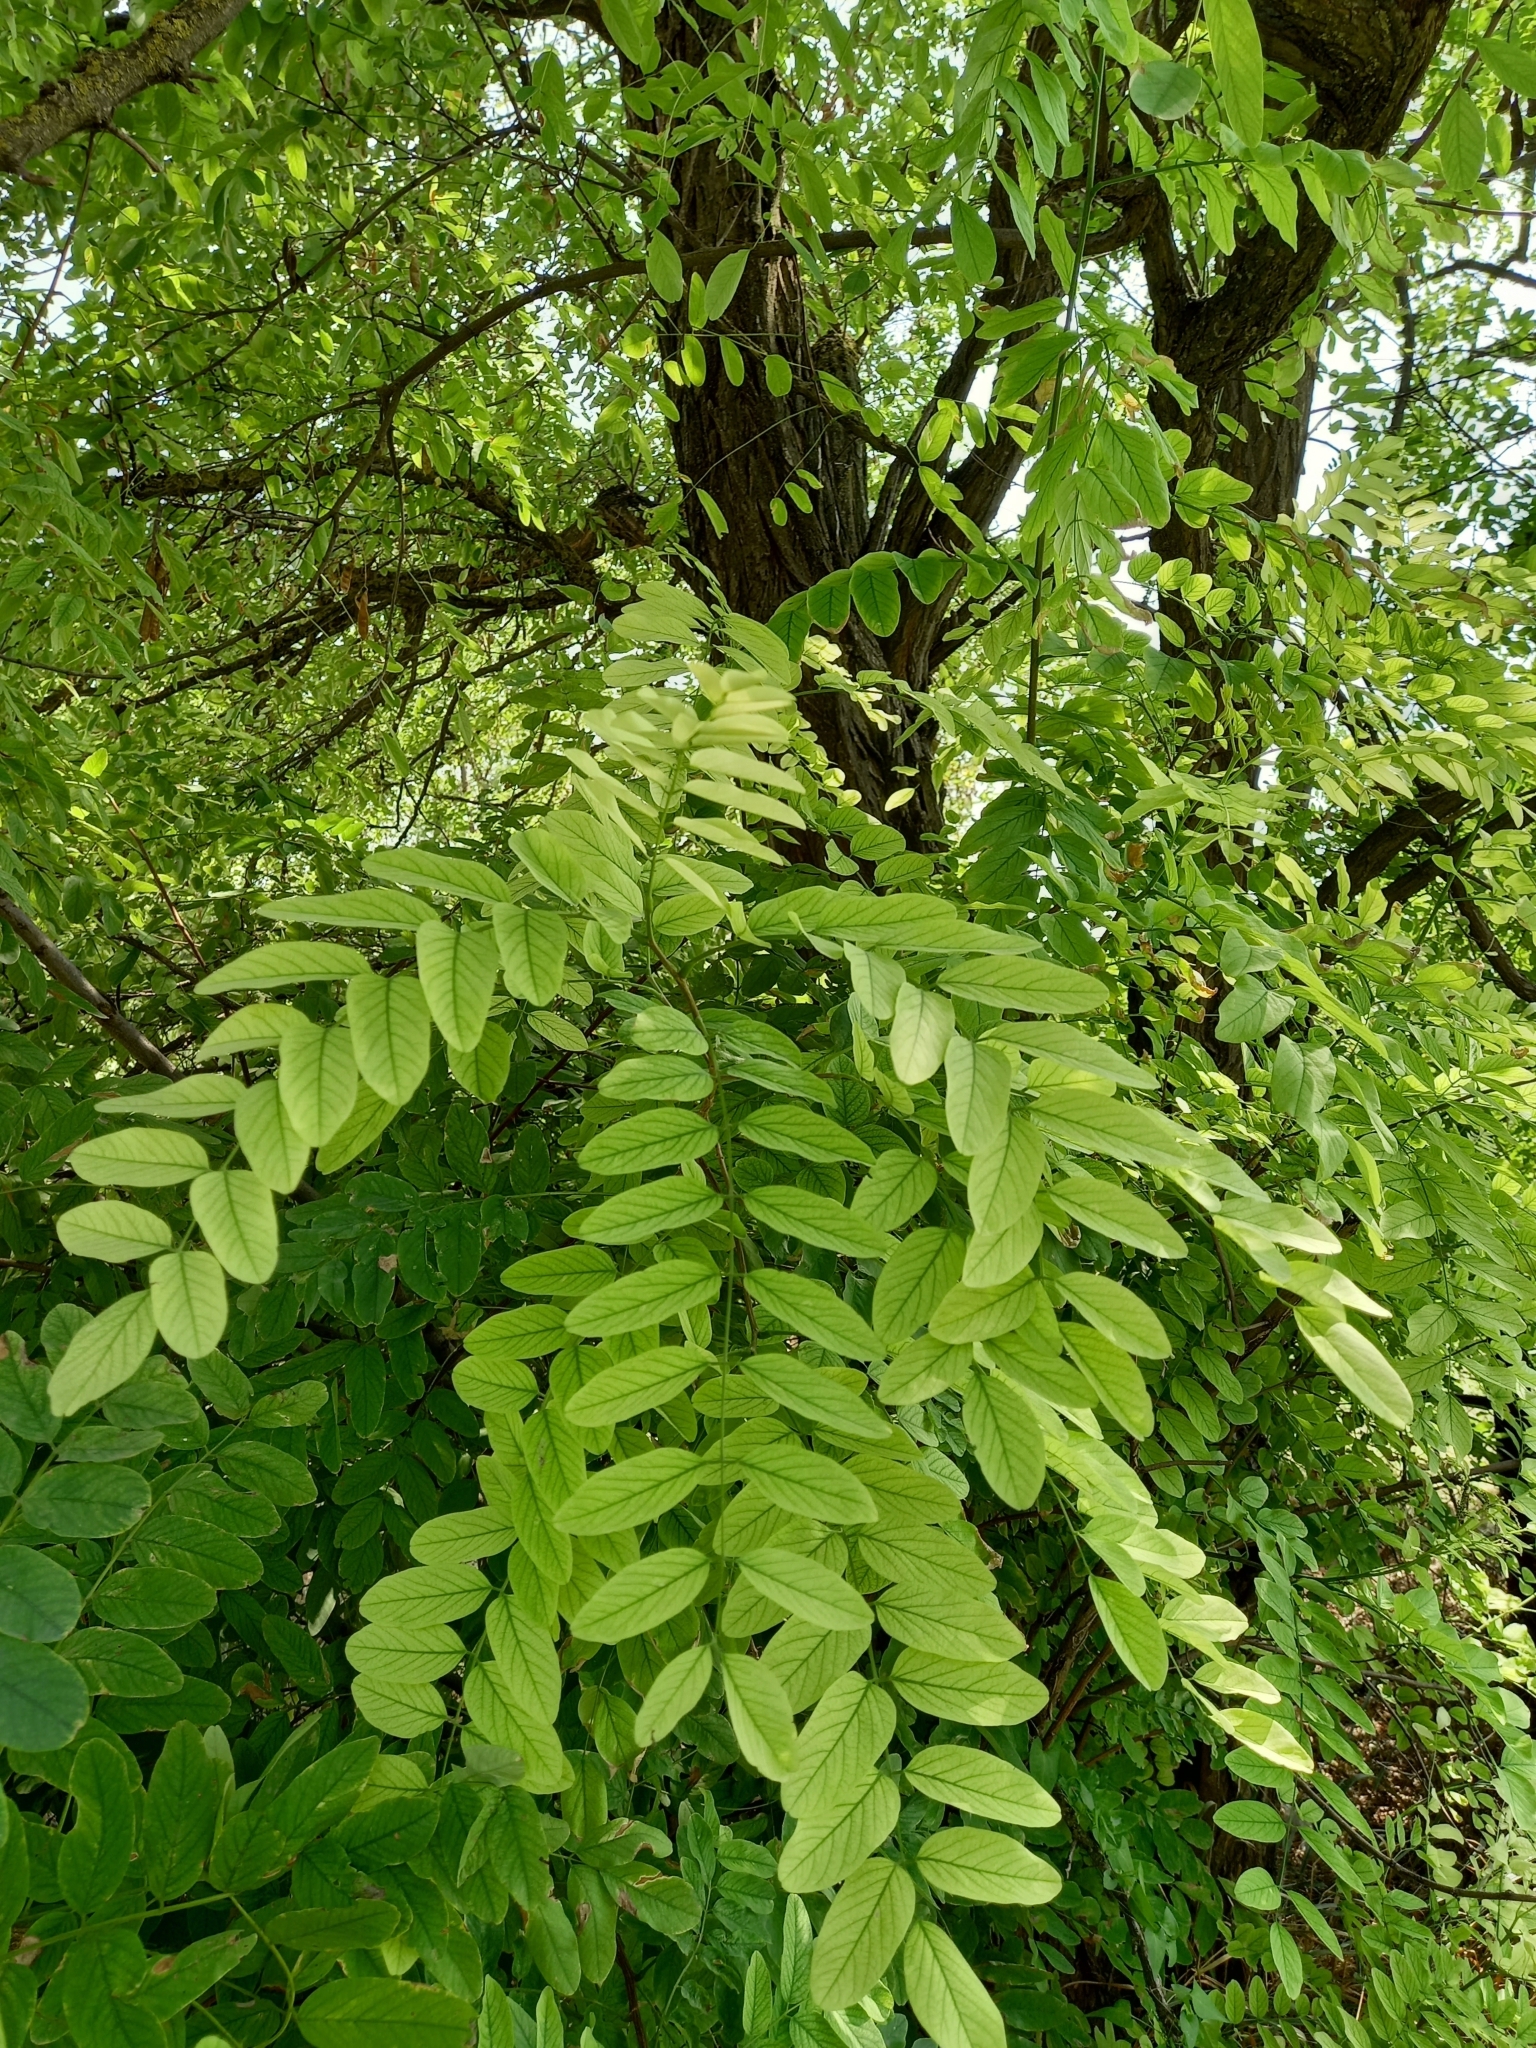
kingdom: Plantae
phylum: Tracheophyta
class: Magnoliopsida
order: Fabales
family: Fabaceae
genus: Robinia
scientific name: Robinia pseudoacacia
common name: Black locust
